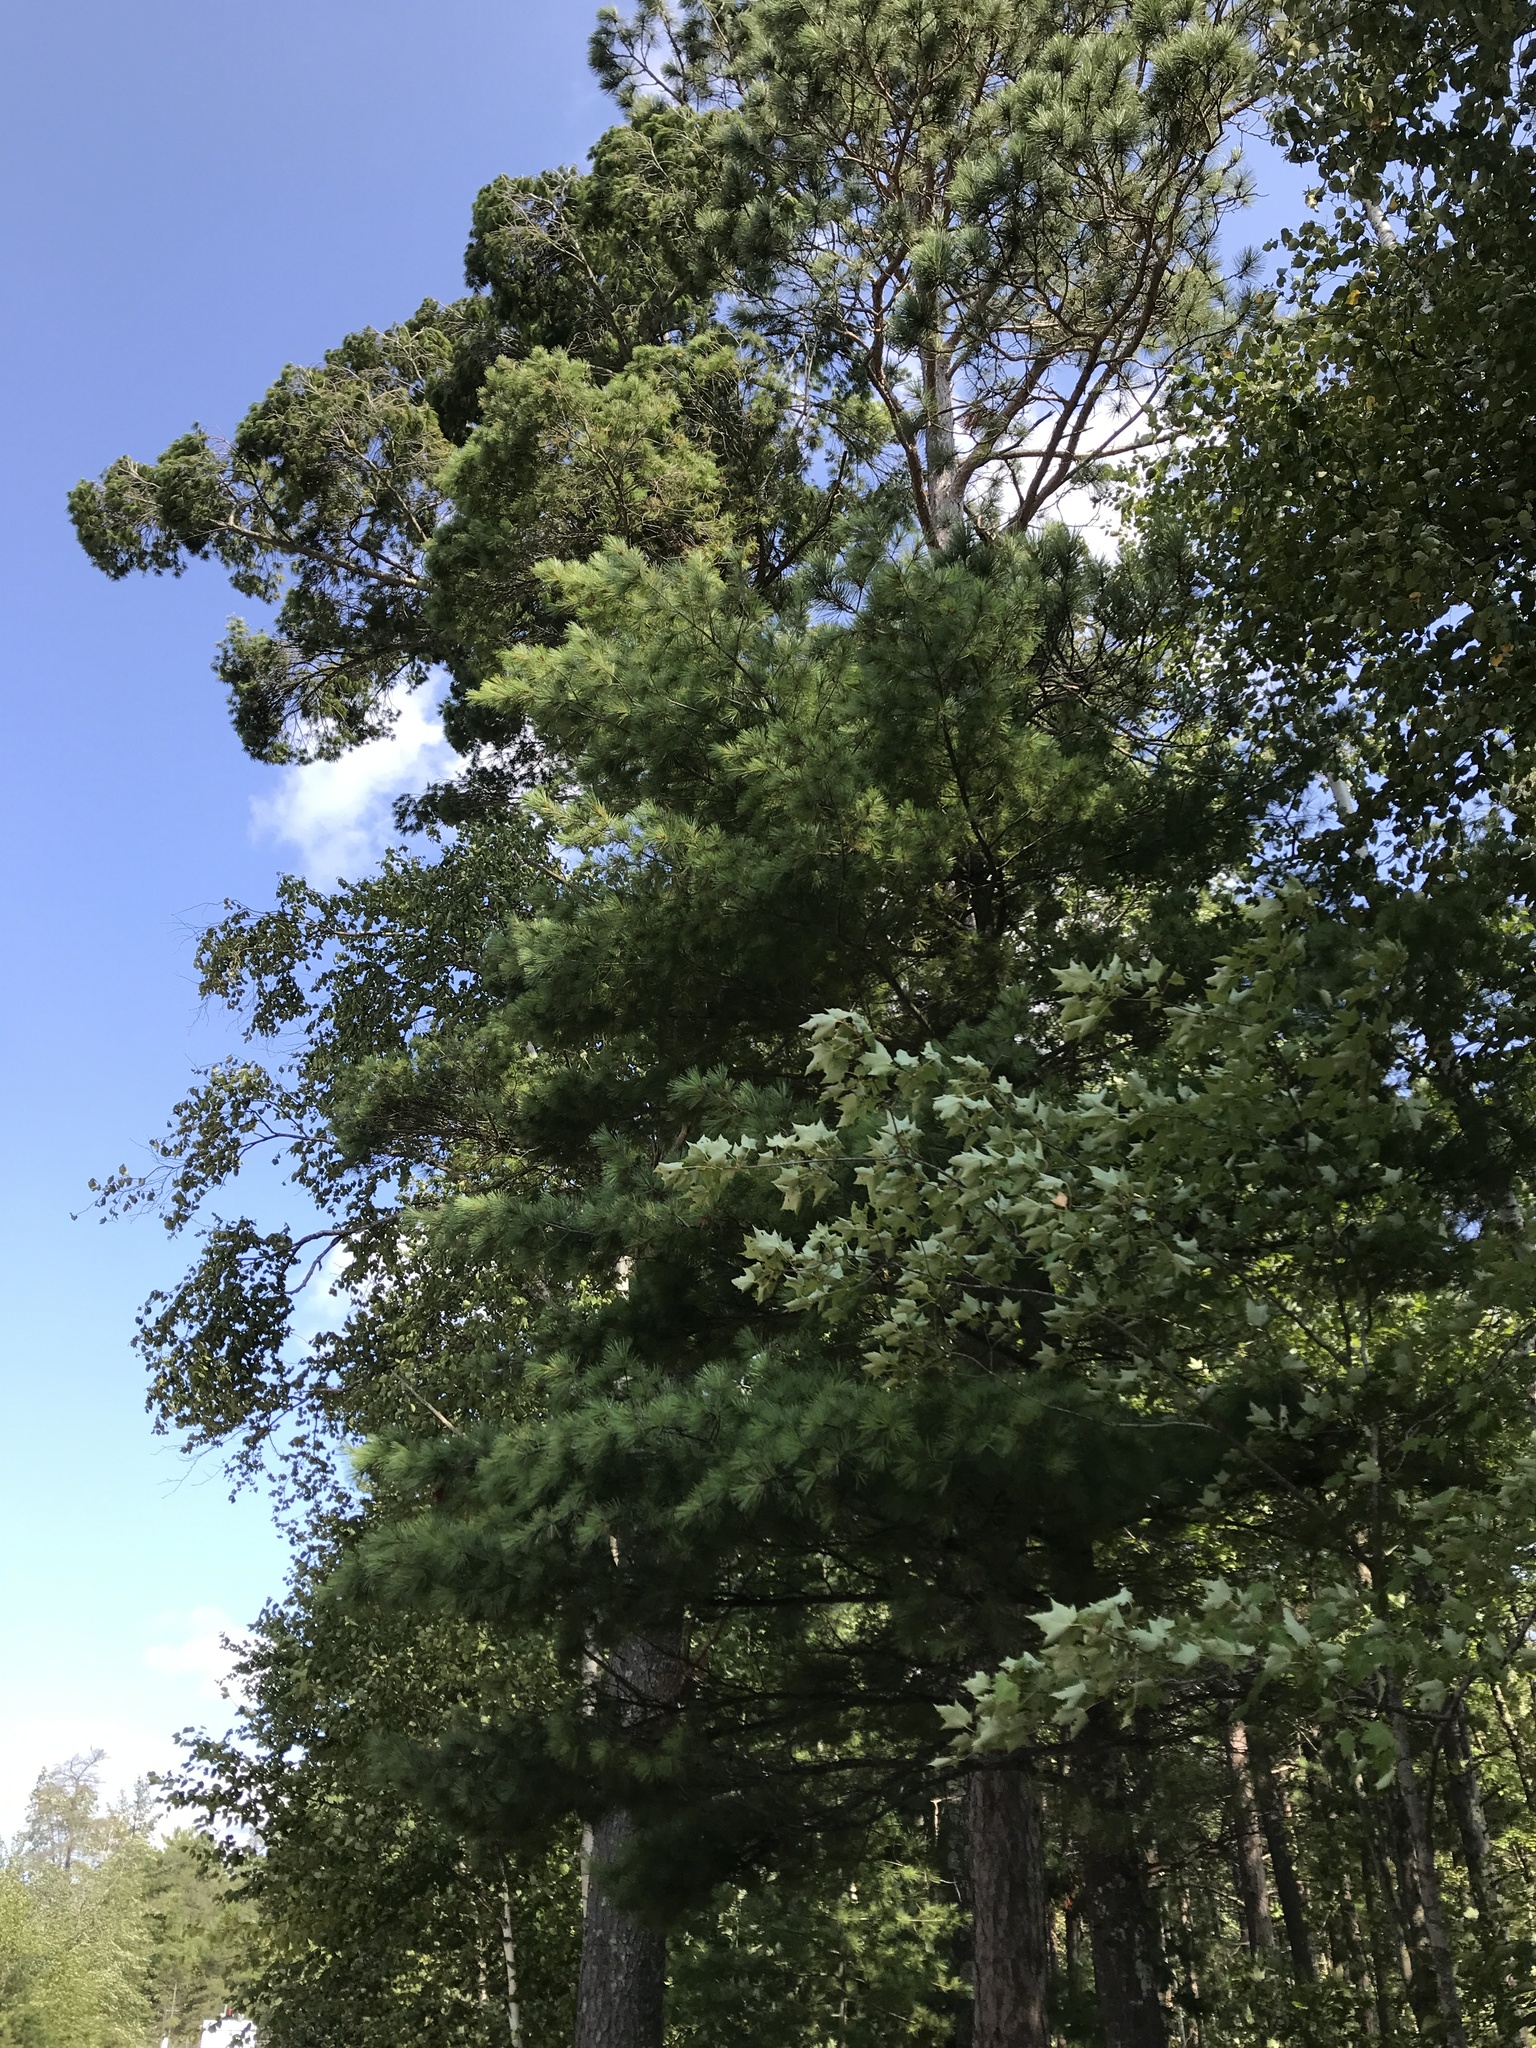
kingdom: Plantae
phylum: Tracheophyta
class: Pinopsida
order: Pinales
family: Pinaceae
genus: Pinus
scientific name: Pinus strobus
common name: Weymouth pine
